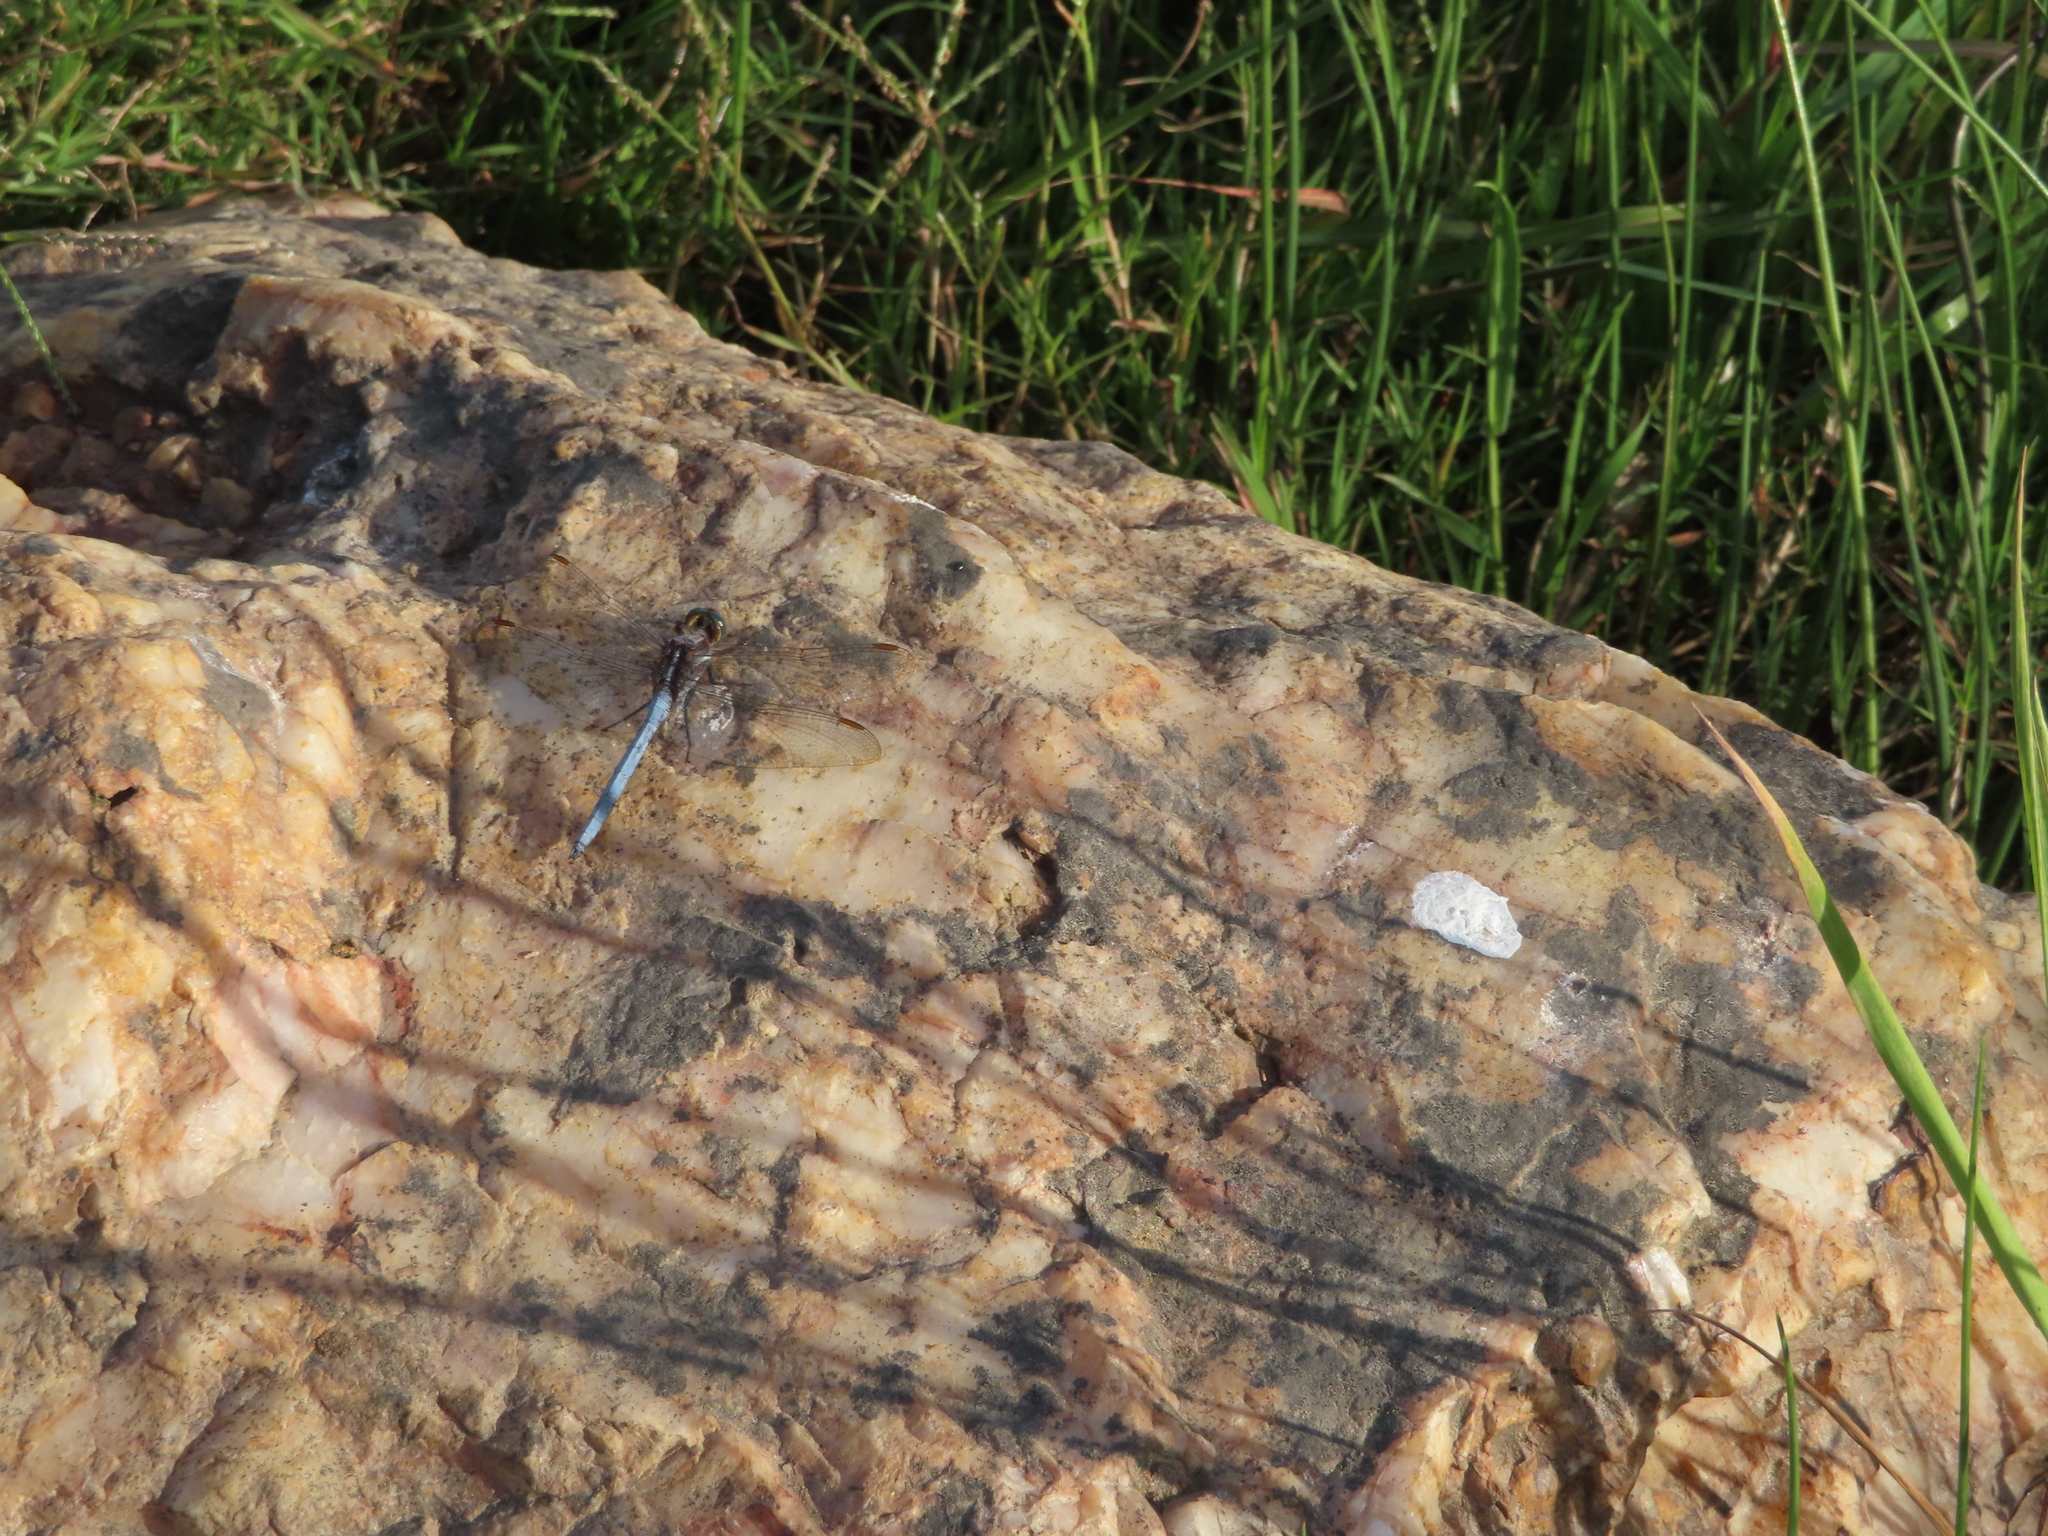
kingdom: Animalia
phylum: Arthropoda
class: Insecta
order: Odonata
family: Libellulidae
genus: Orthetrum
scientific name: Orthetrum caffrum
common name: Two-striped skimmer
